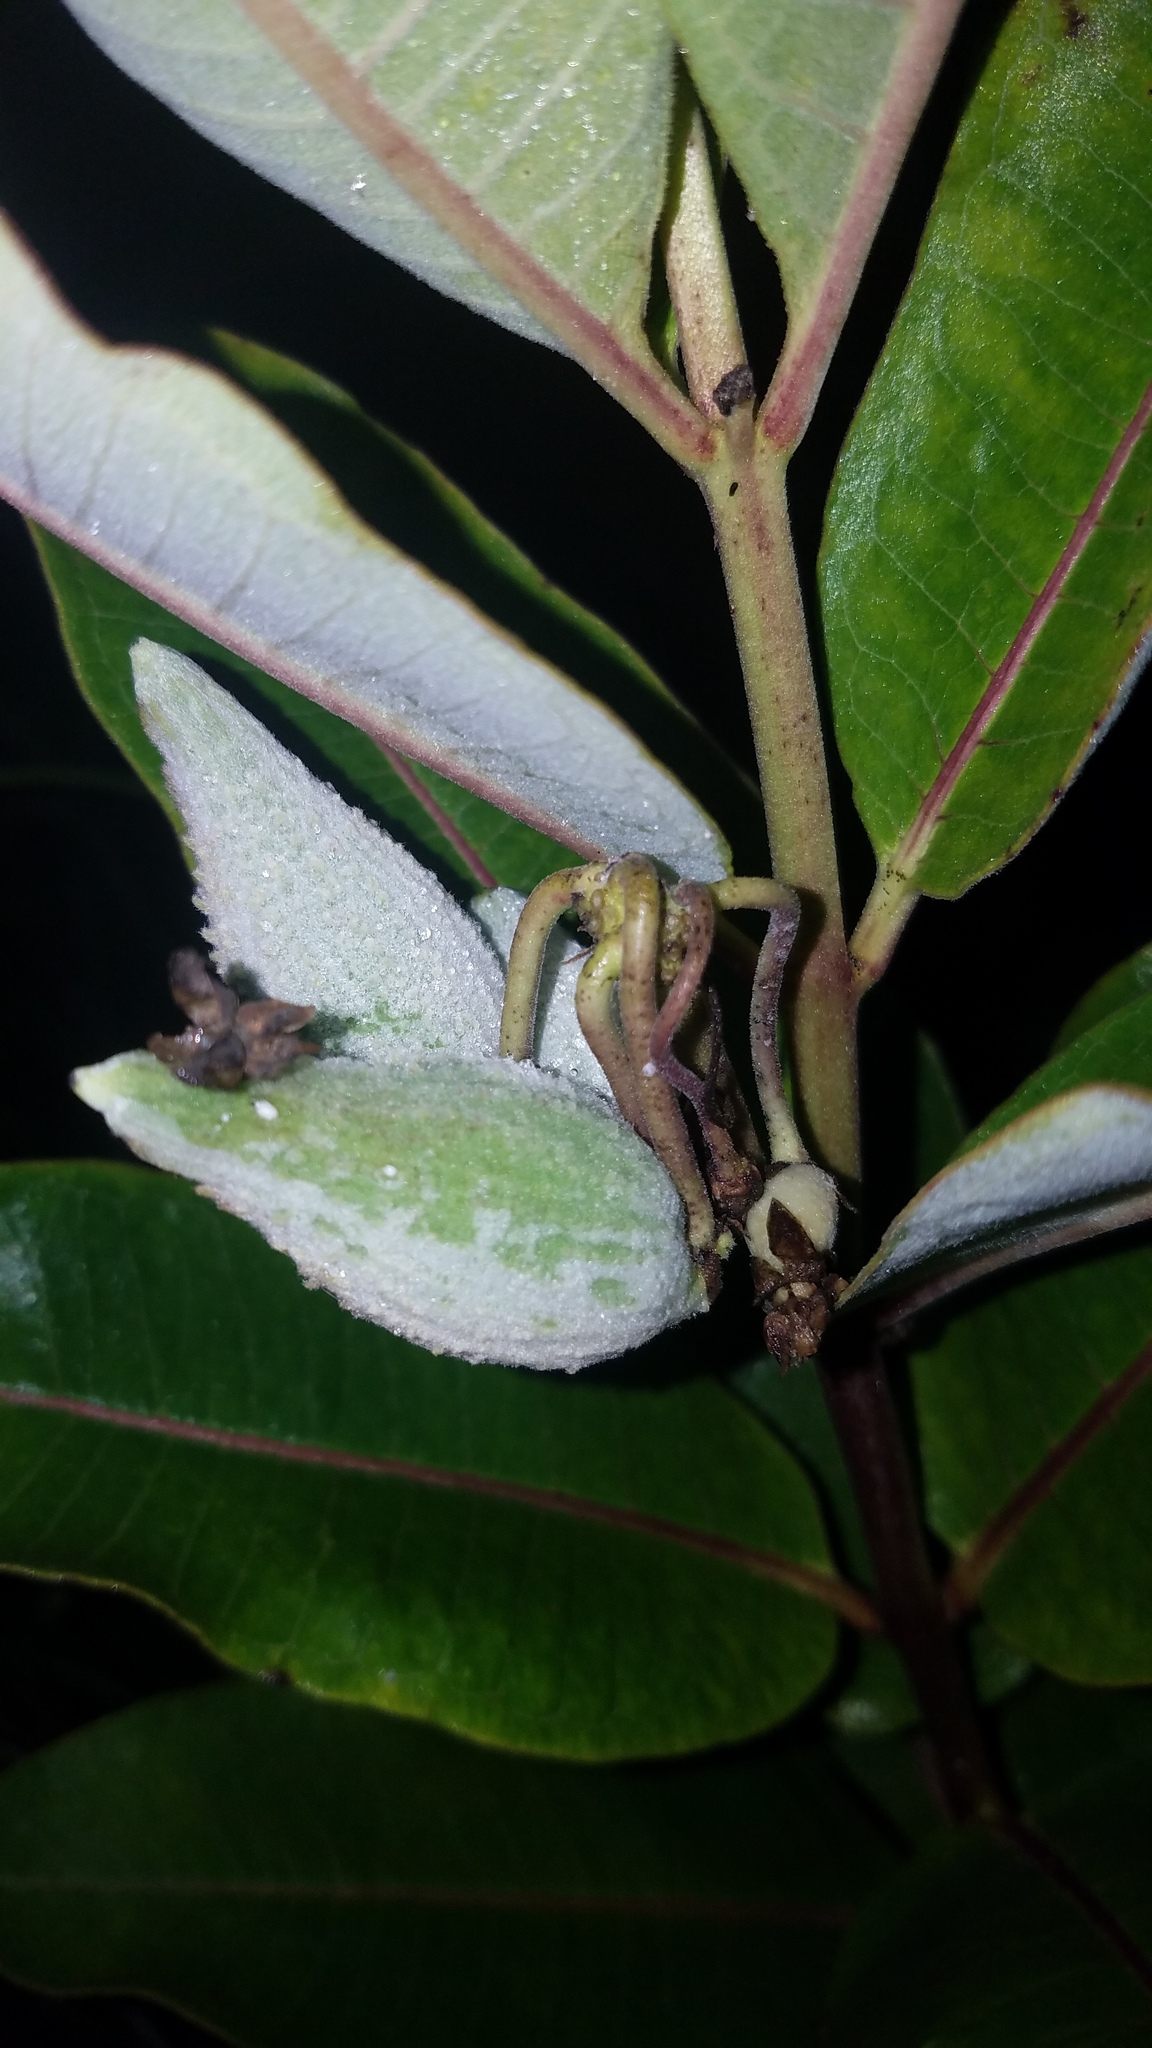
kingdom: Plantae
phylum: Tracheophyta
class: Magnoliopsida
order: Gentianales
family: Apocynaceae
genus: Asclepias
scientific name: Asclepias syriaca
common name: Common milkweed
